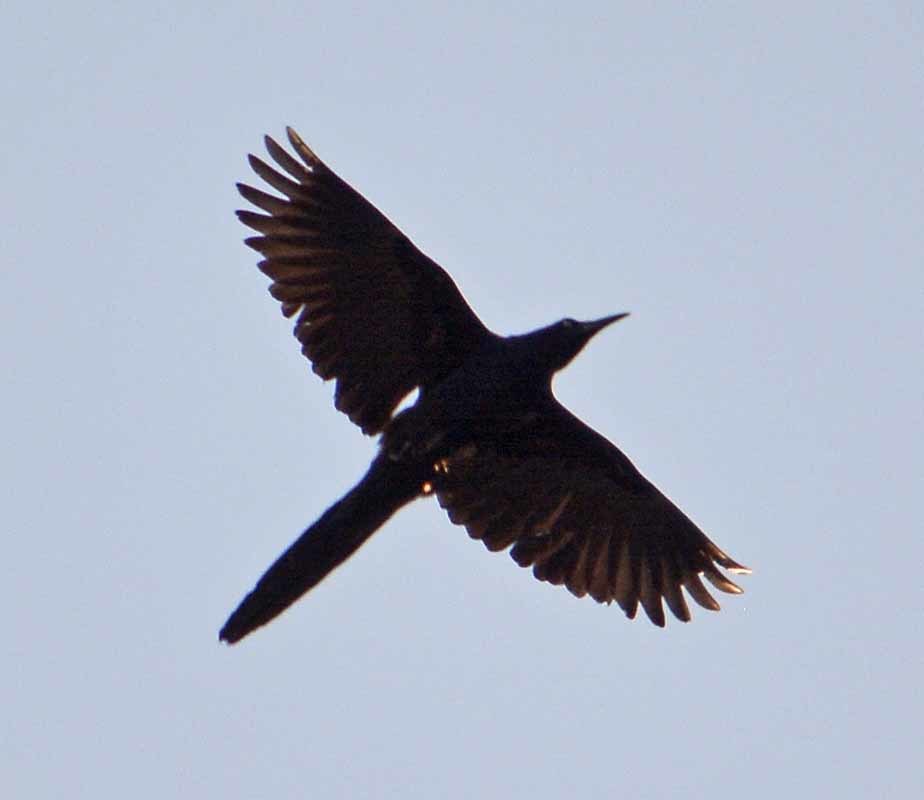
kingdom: Animalia
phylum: Chordata
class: Aves
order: Passeriformes
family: Icteridae
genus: Quiscalus
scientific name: Quiscalus mexicanus
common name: Great-tailed grackle
